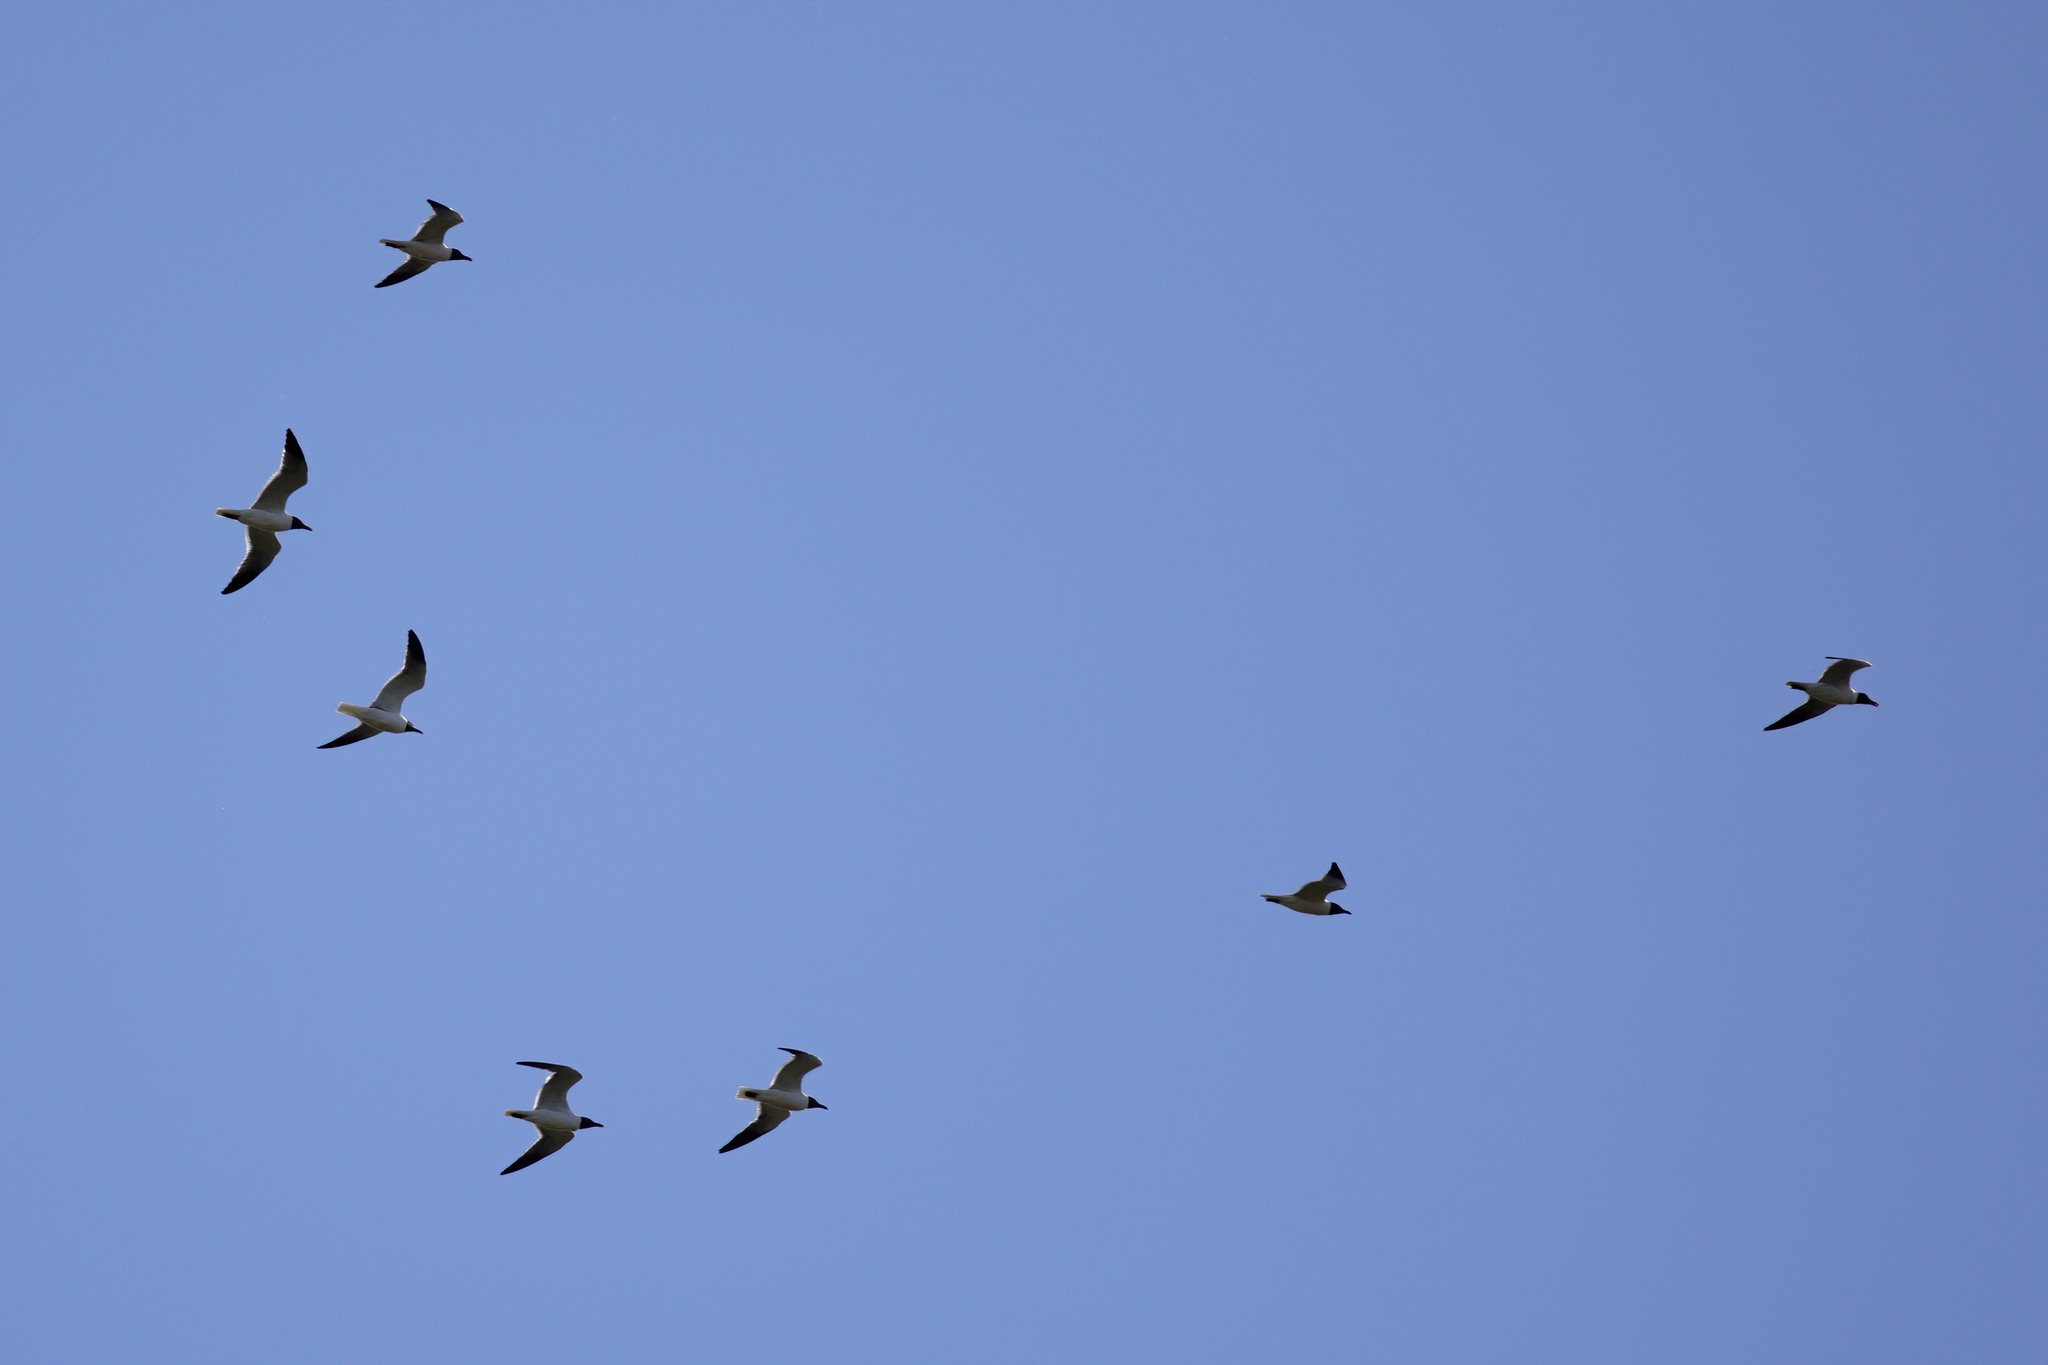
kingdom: Animalia
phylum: Chordata
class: Aves
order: Charadriiformes
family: Laridae
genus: Leucophaeus
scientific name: Leucophaeus atricilla
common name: Laughing gull
